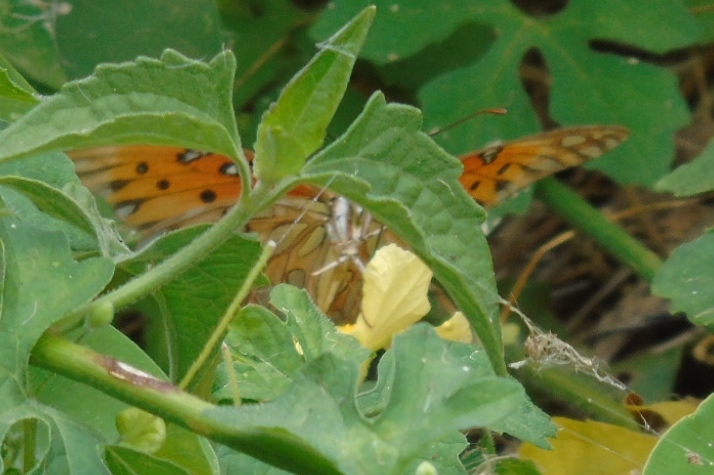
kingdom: Animalia
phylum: Arthropoda
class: Insecta
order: Lepidoptera
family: Nymphalidae
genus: Dione
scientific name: Dione vanillae
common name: Gulf fritillary
